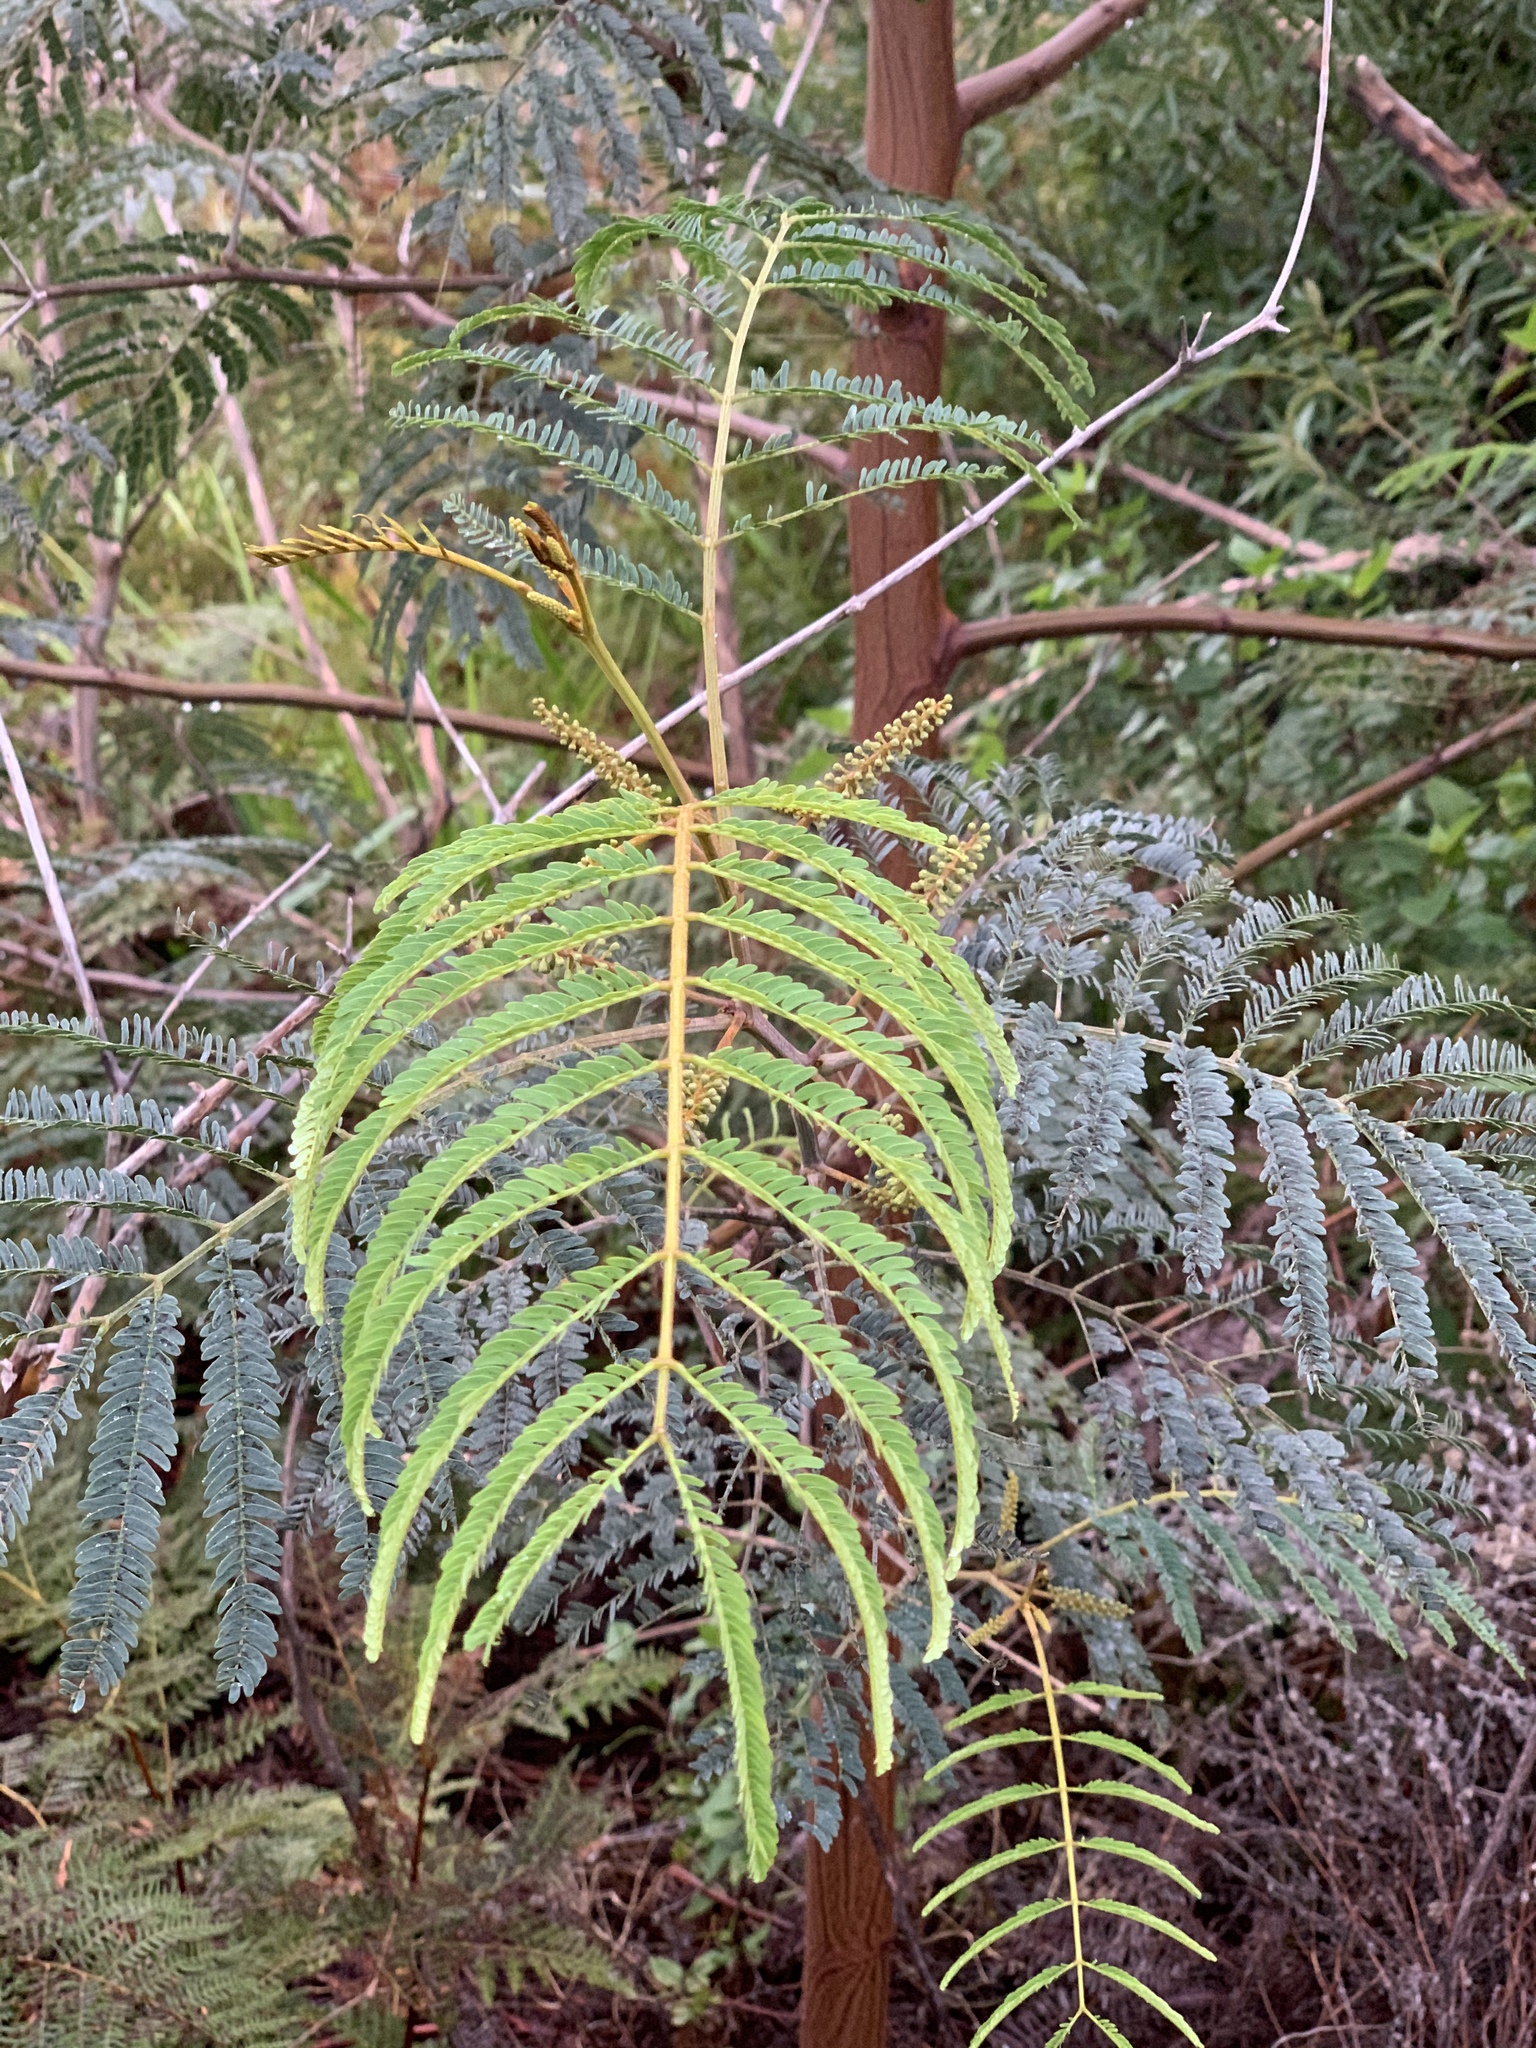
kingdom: Plantae
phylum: Tracheophyta
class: Magnoliopsida
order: Fabales
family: Fabaceae
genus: Paraserianthes
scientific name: Paraserianthes lophantha
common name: Plume albizia
